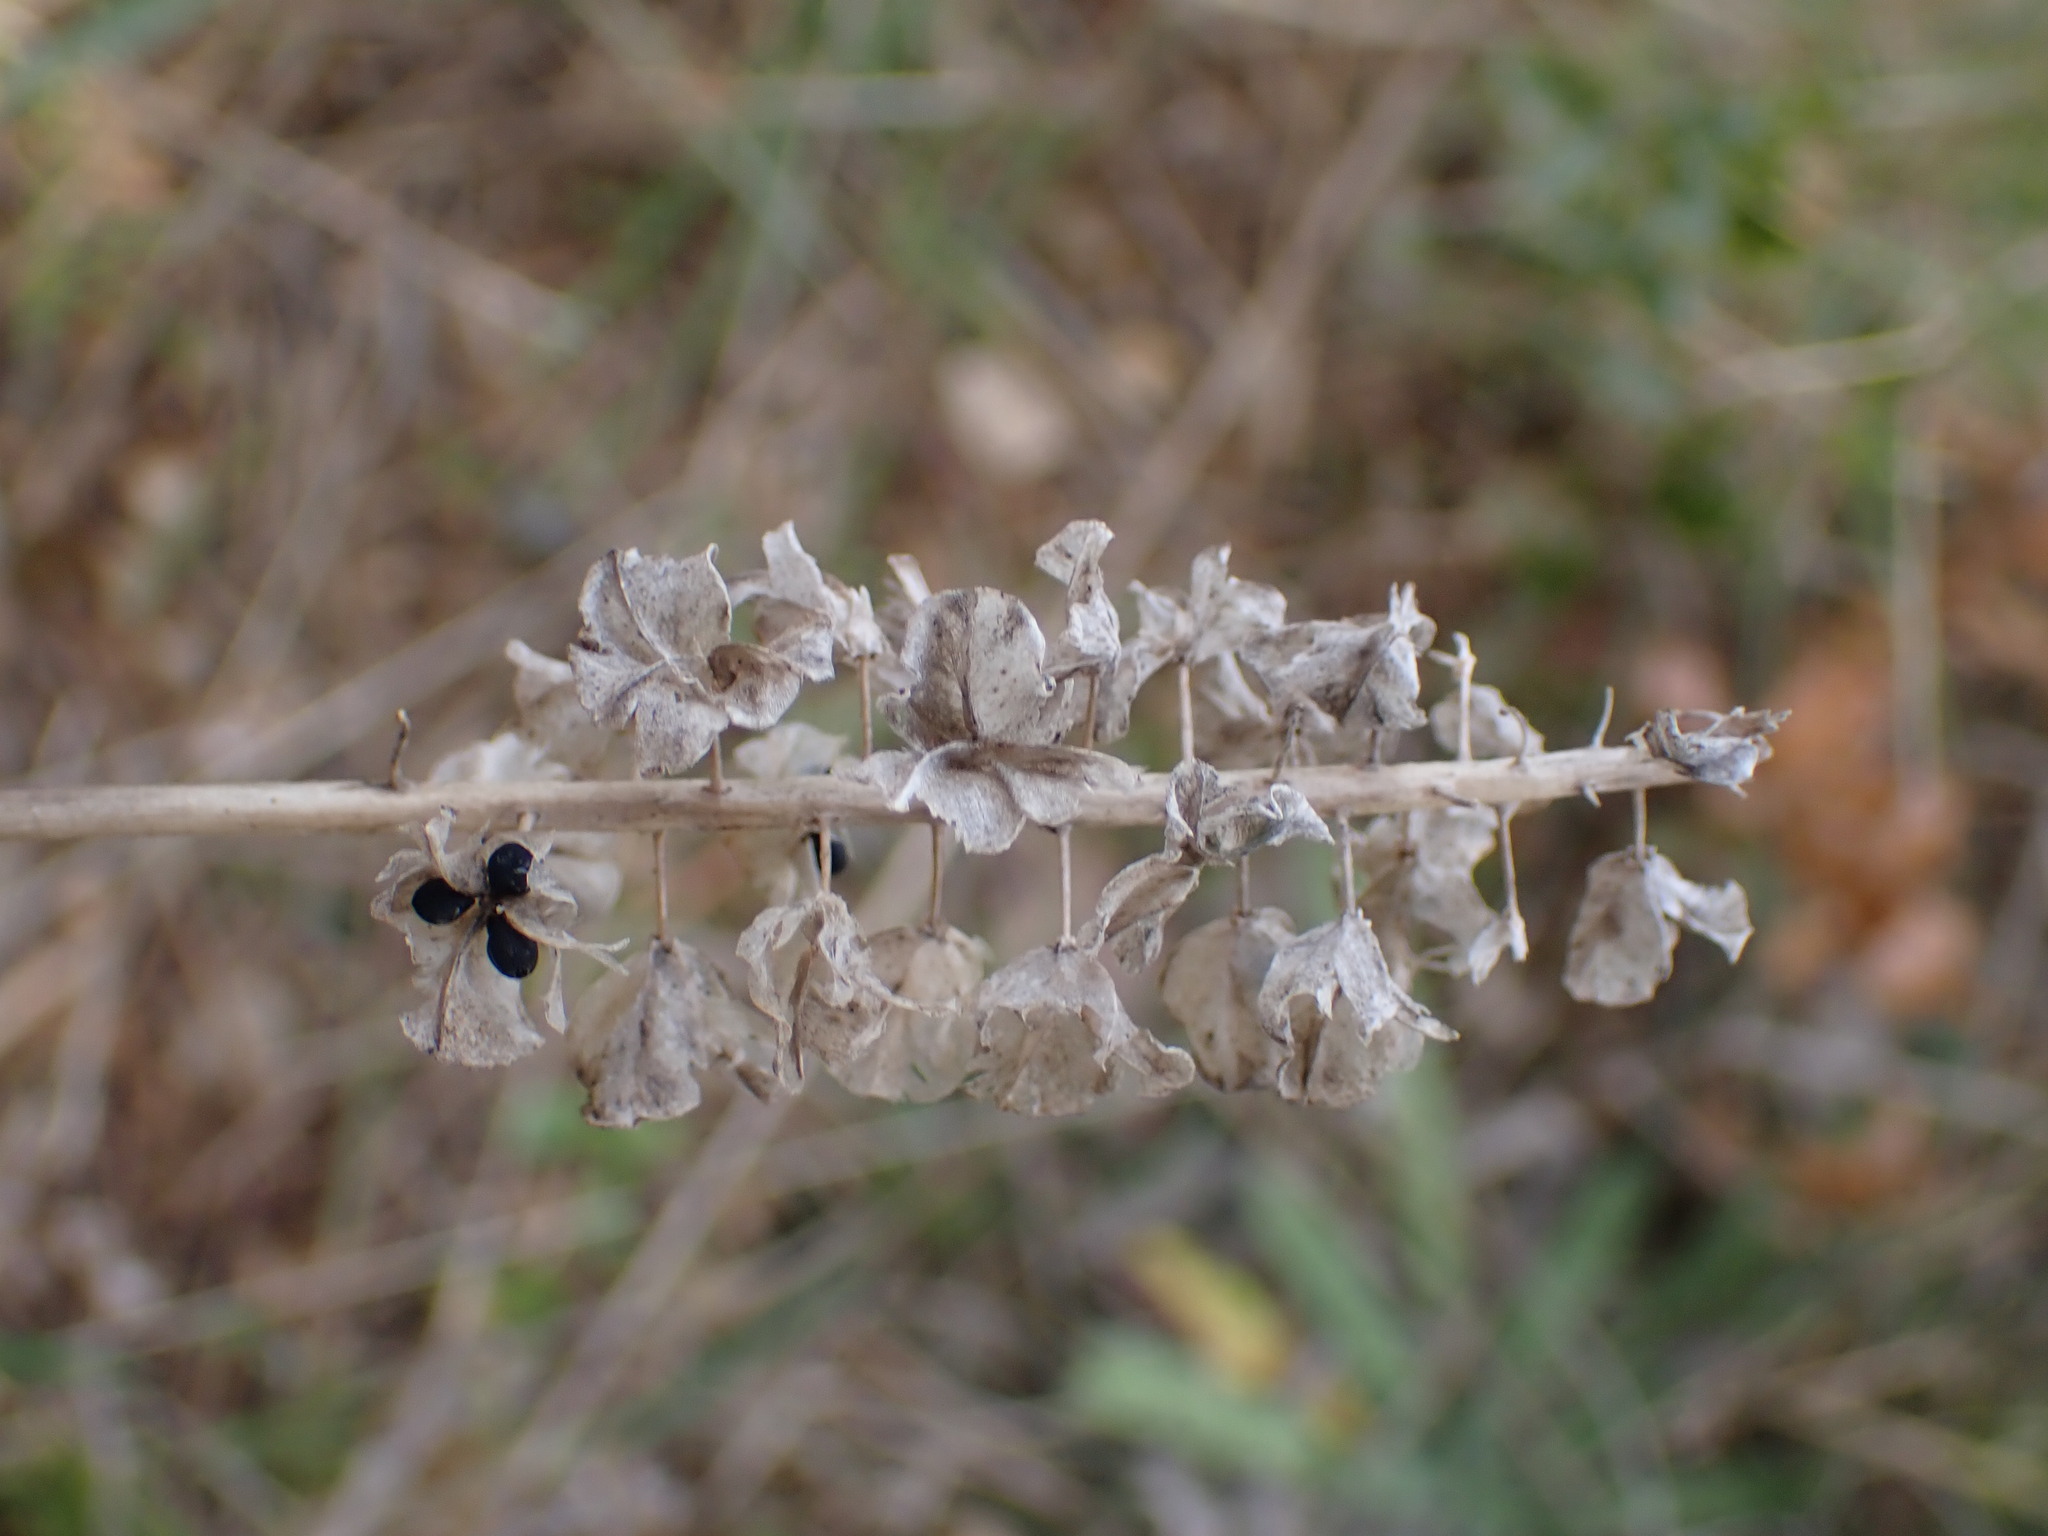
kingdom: Plantae
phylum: Tracheophyta
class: Liliopsida
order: Asparagales
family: Asparagaceae
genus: Muscari
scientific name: Muscari comosum
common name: Tassel hyacinth
